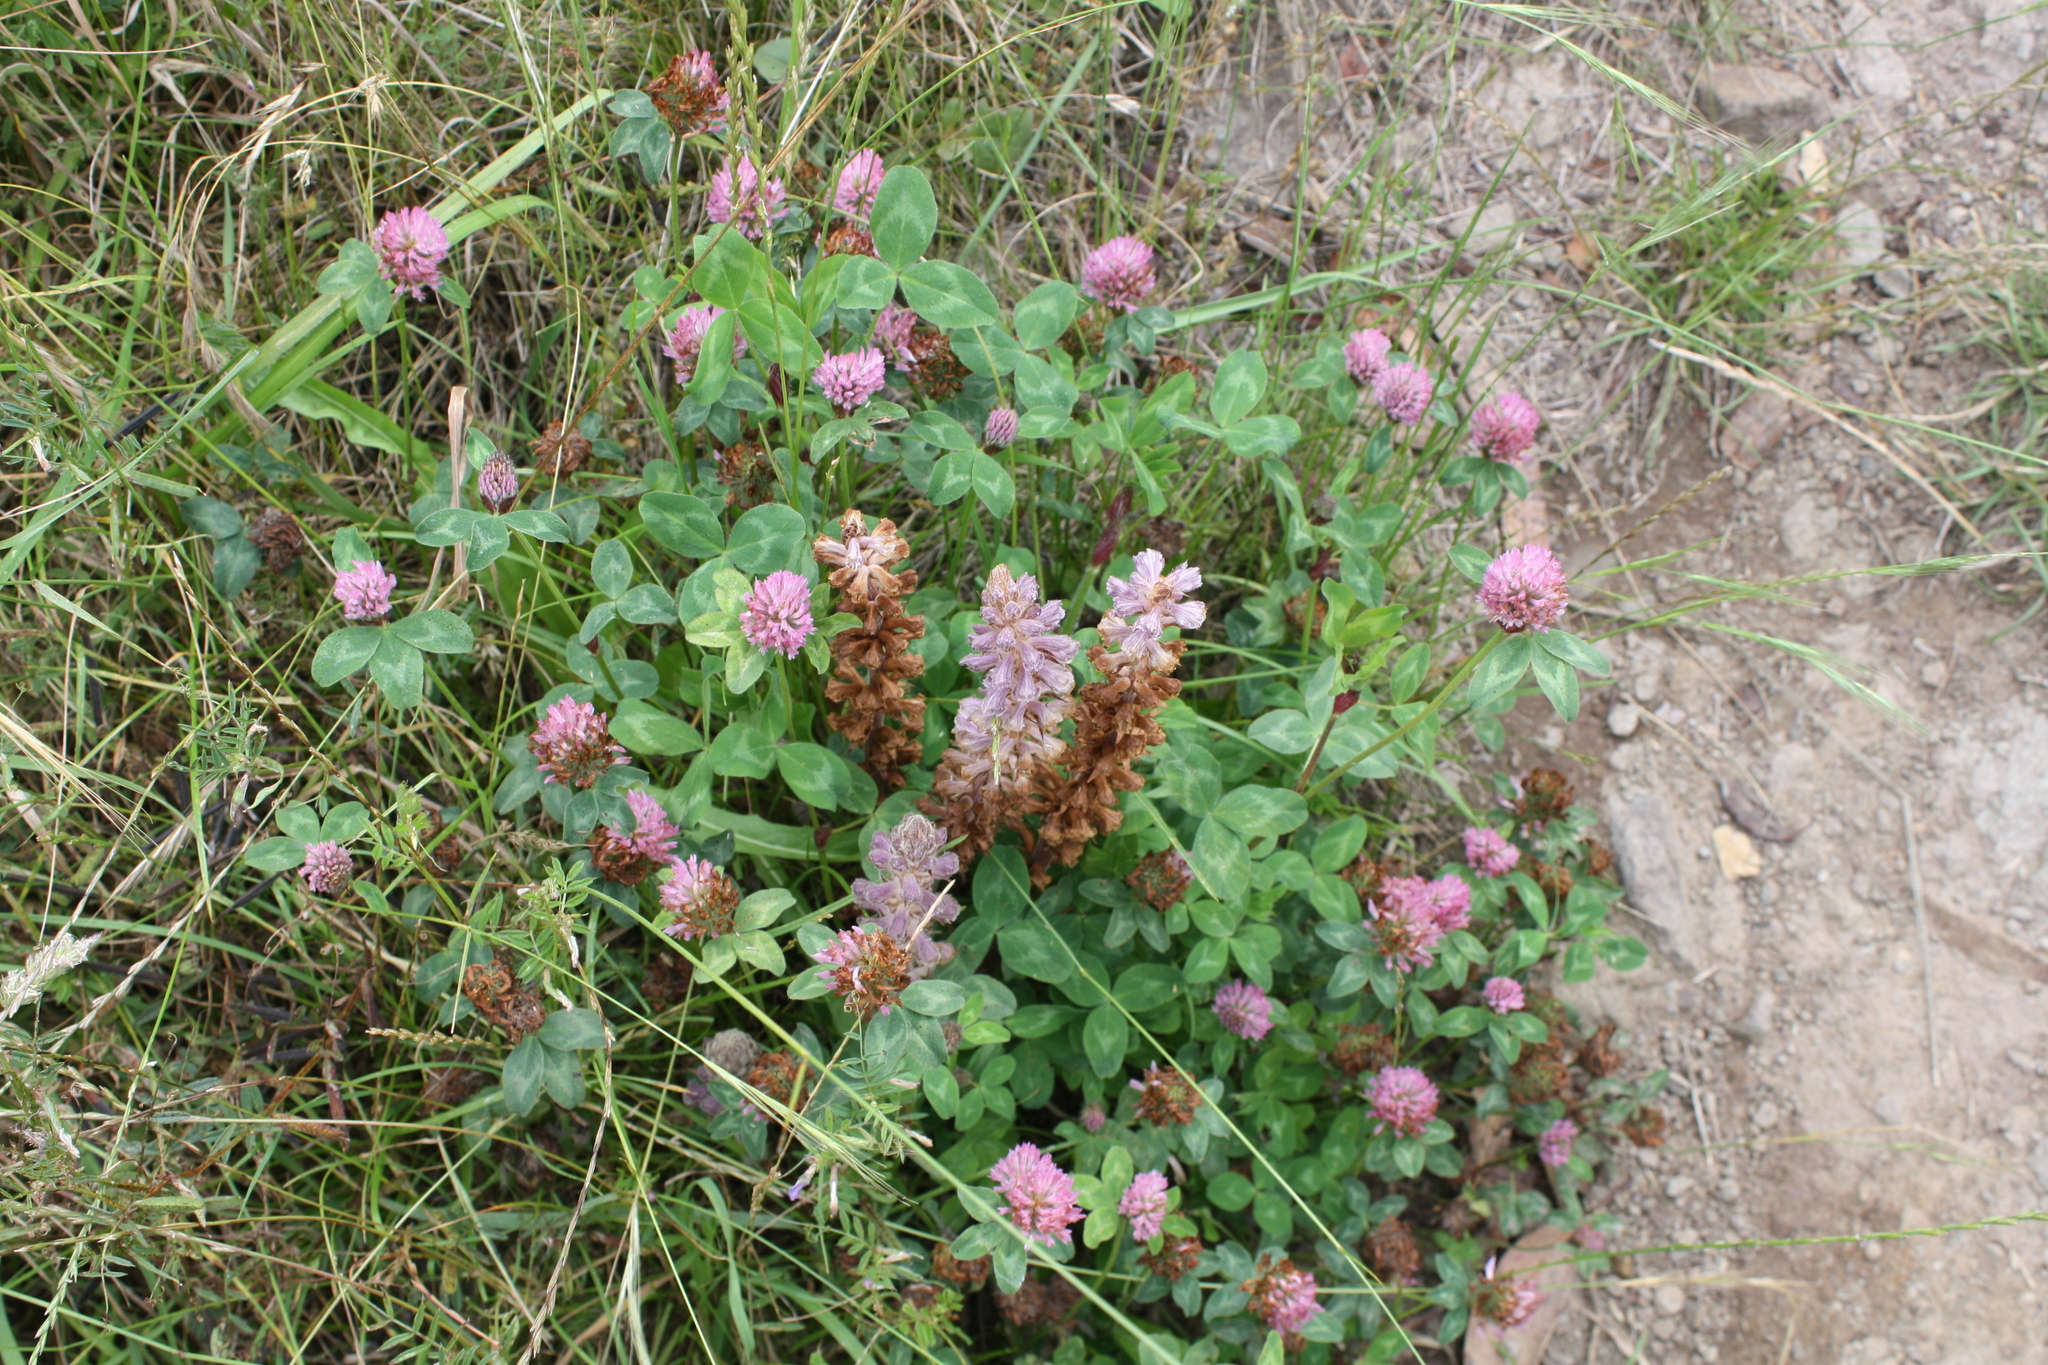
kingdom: Plantae
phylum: Tracheophyta
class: Magnoliopsida
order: Fabales
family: Fabaceae
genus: Trifolium
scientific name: Trifolium pratense
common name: Red clover
